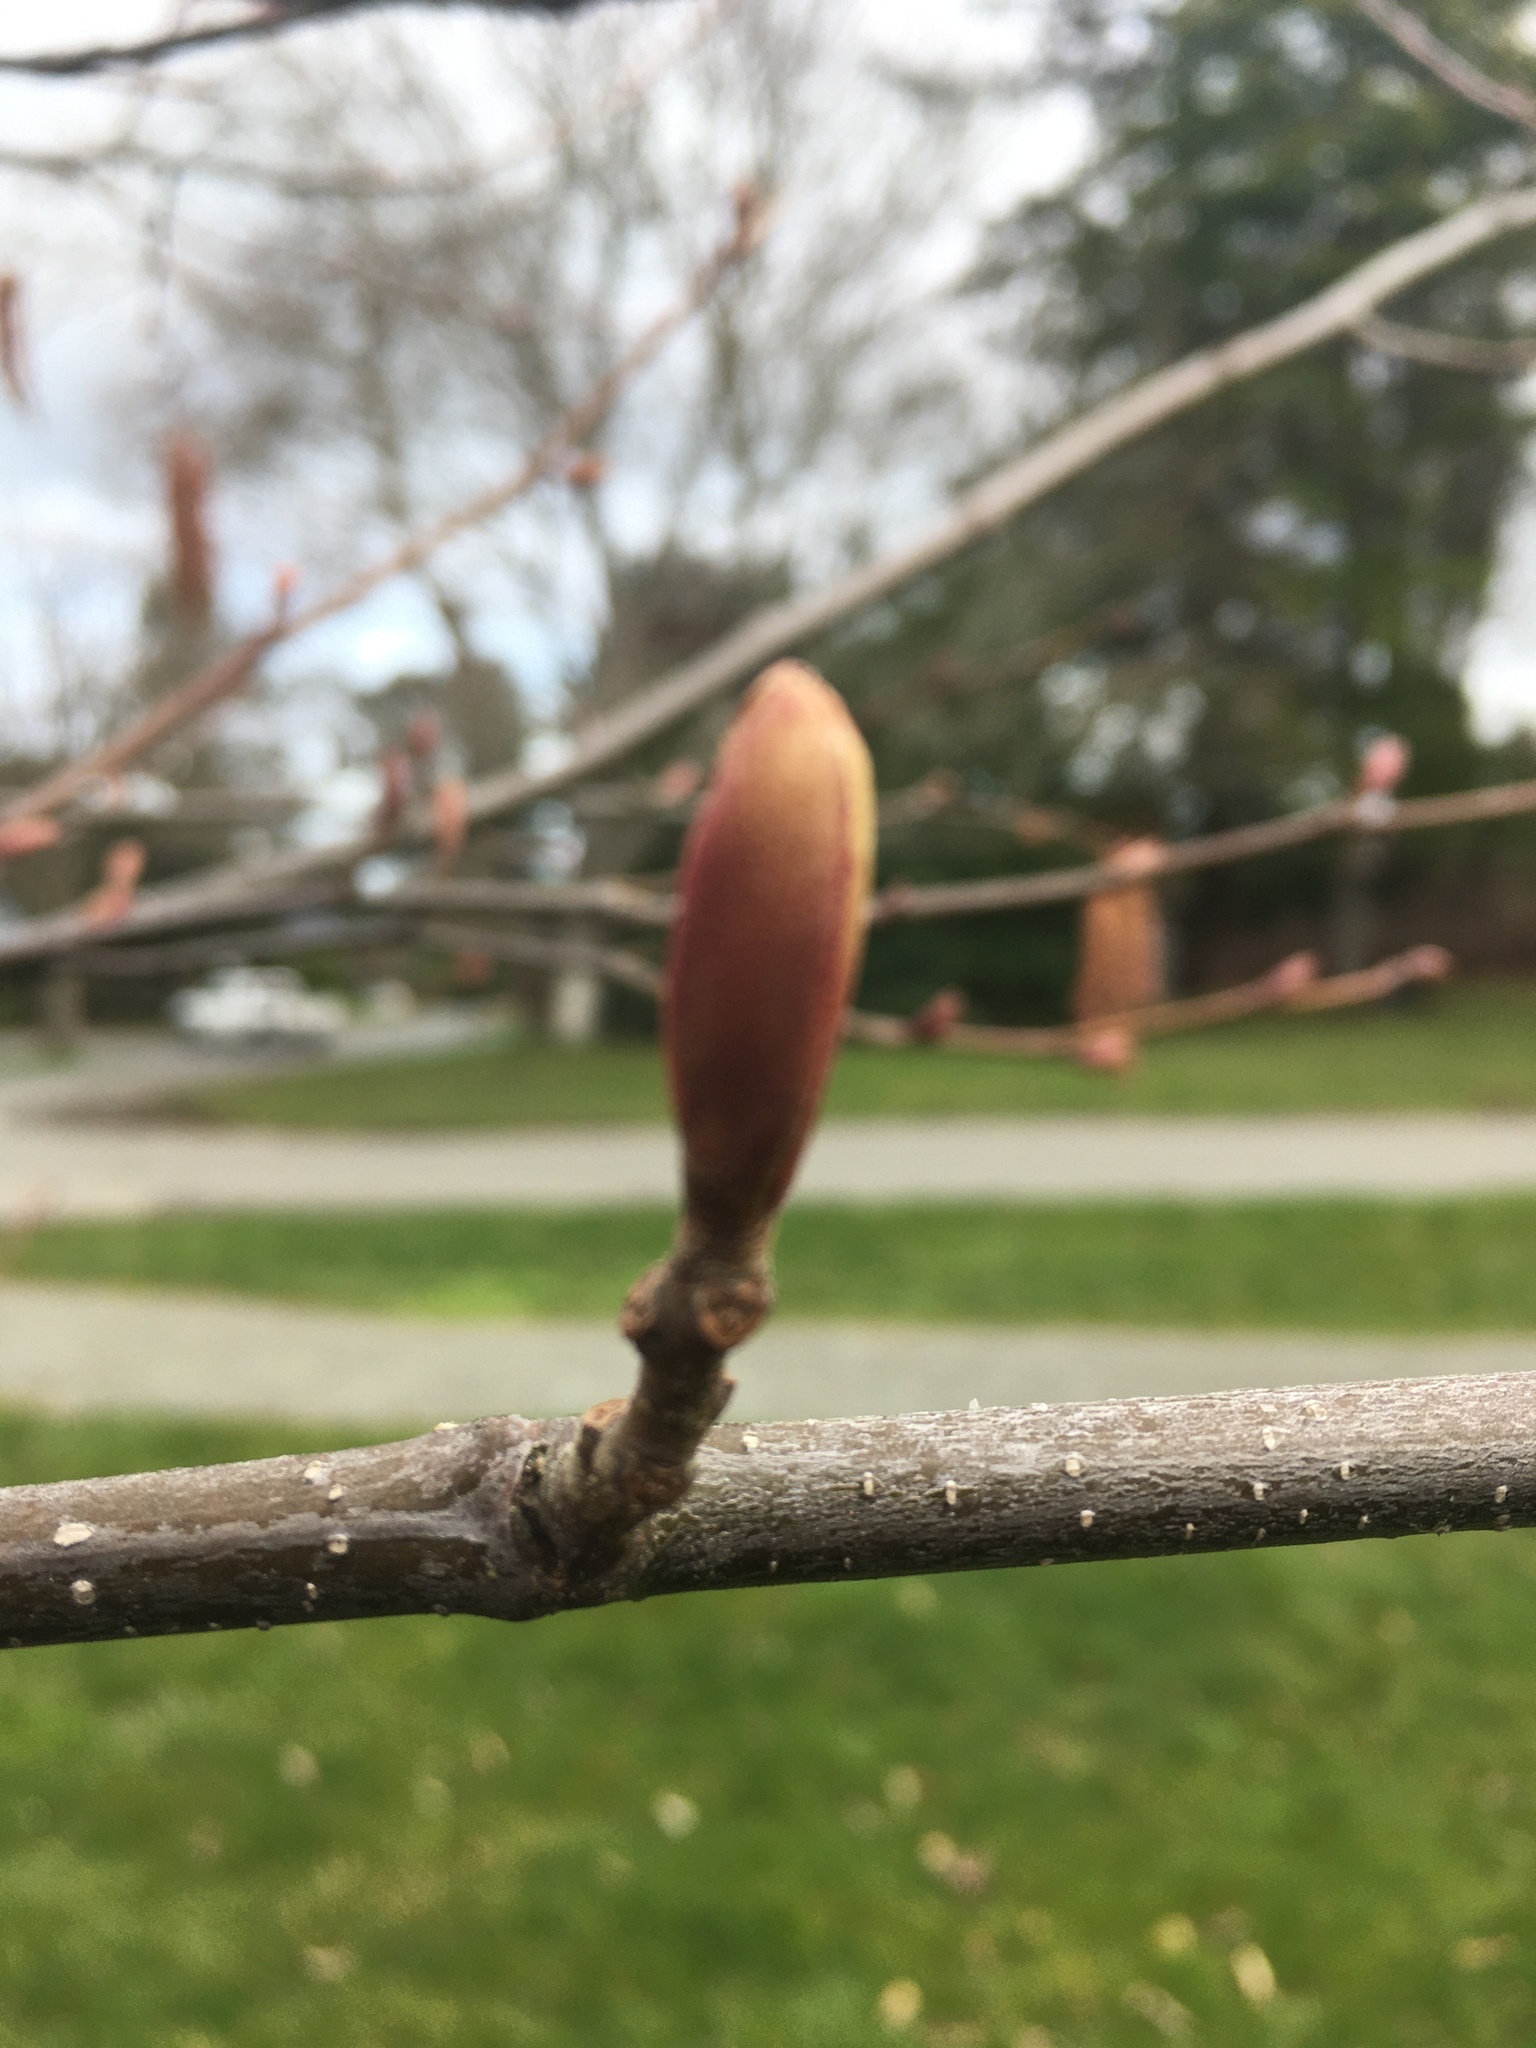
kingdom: Plantae
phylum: Tracheophyta
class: Magnoliopsida
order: Fagales
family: Betulaceae
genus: Alnus
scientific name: Alnus rubra
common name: Red alder
